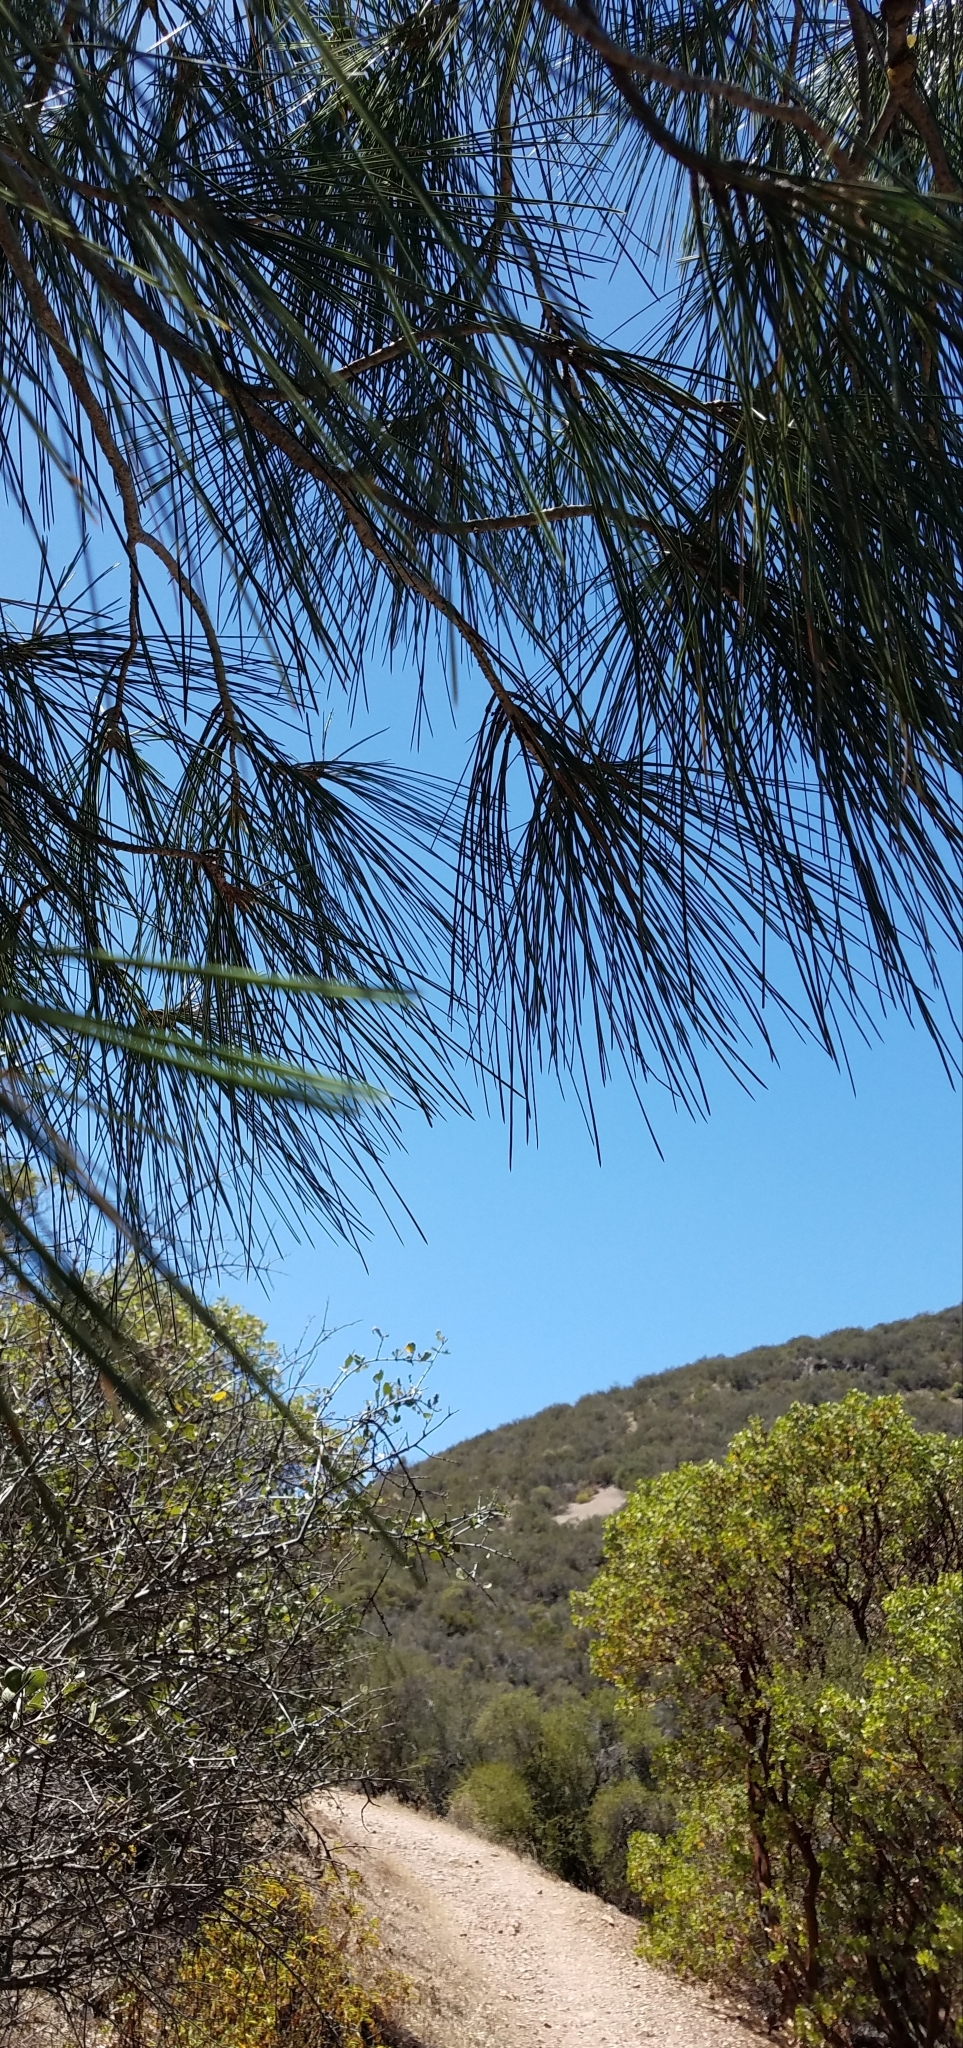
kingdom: Plantae
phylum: Tracheophyta
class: Pinopsida
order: Pinales
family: Pinaceae
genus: Pinus
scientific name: Pinus sabiniana
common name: Bull pine
